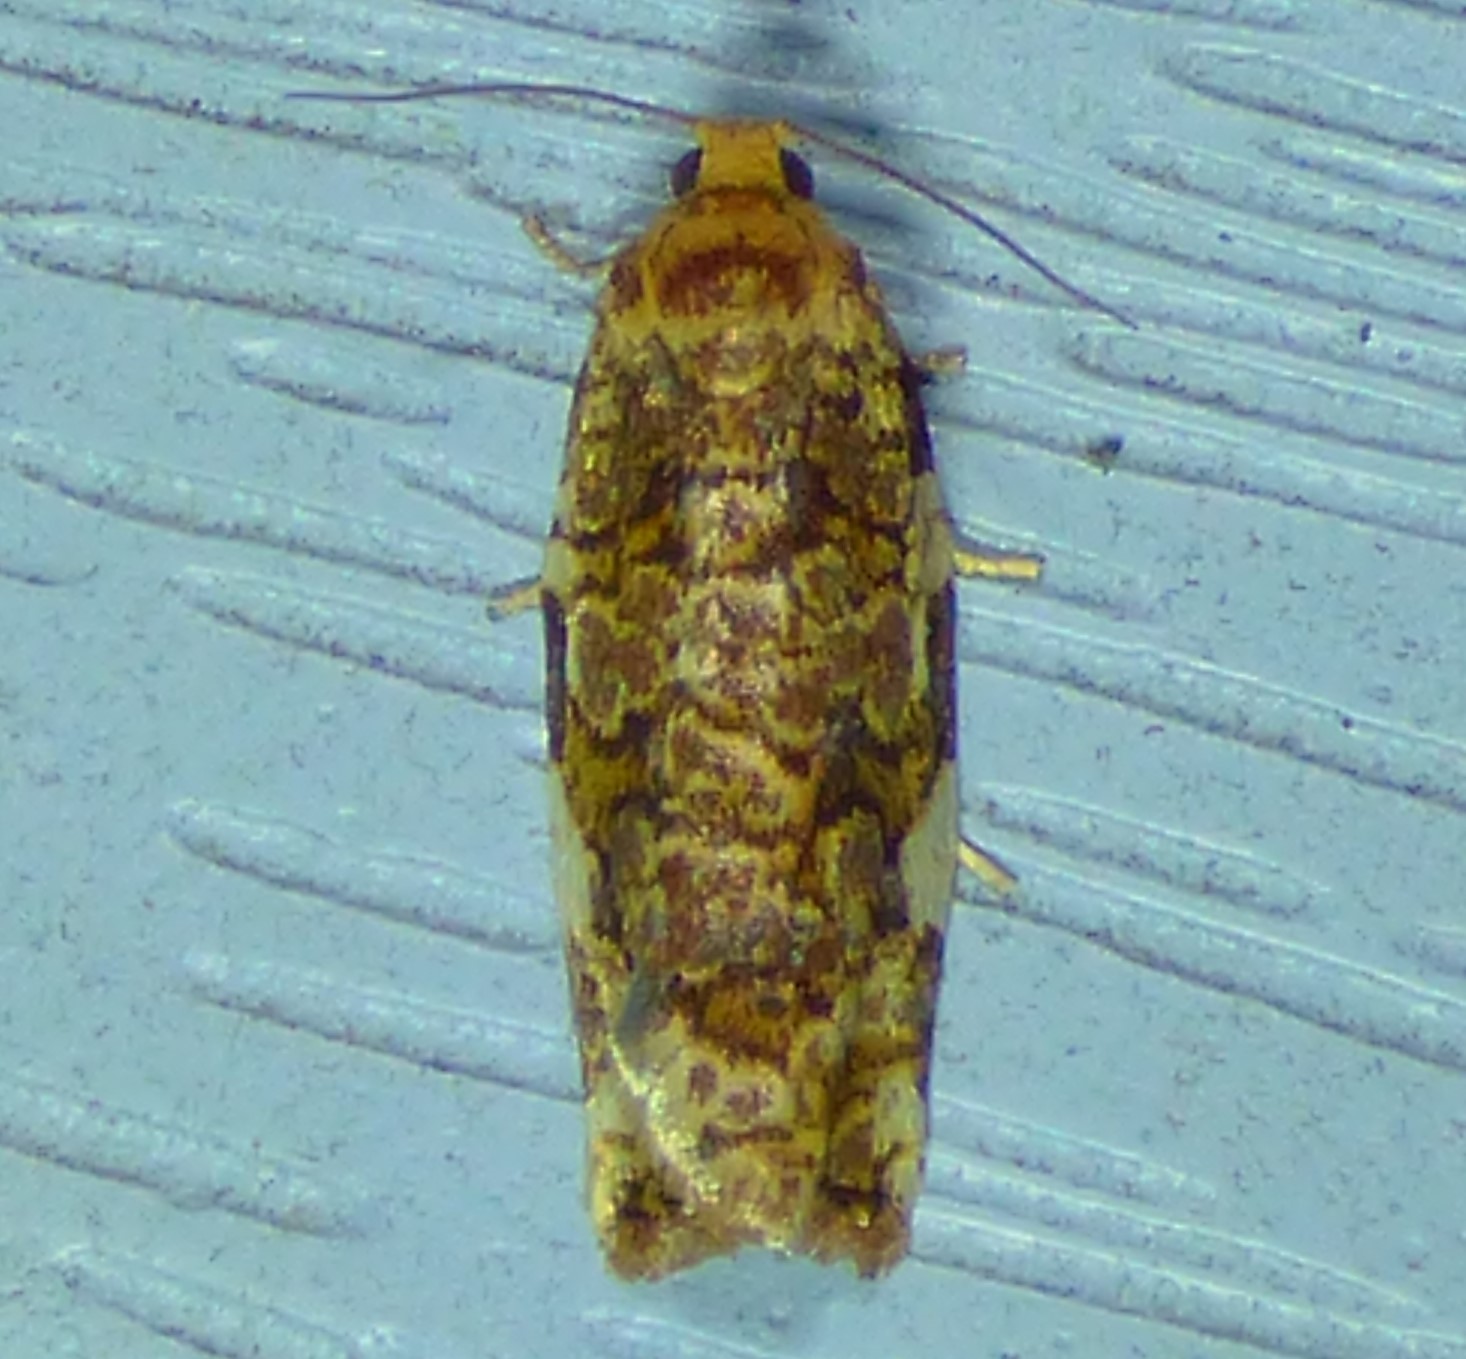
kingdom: Animalia
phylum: Arthropoda
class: Insecta
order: Lepidoptera
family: Tortricidae
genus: Archips
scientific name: Archips argyrospila
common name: Fruit-tree leafroller moth
